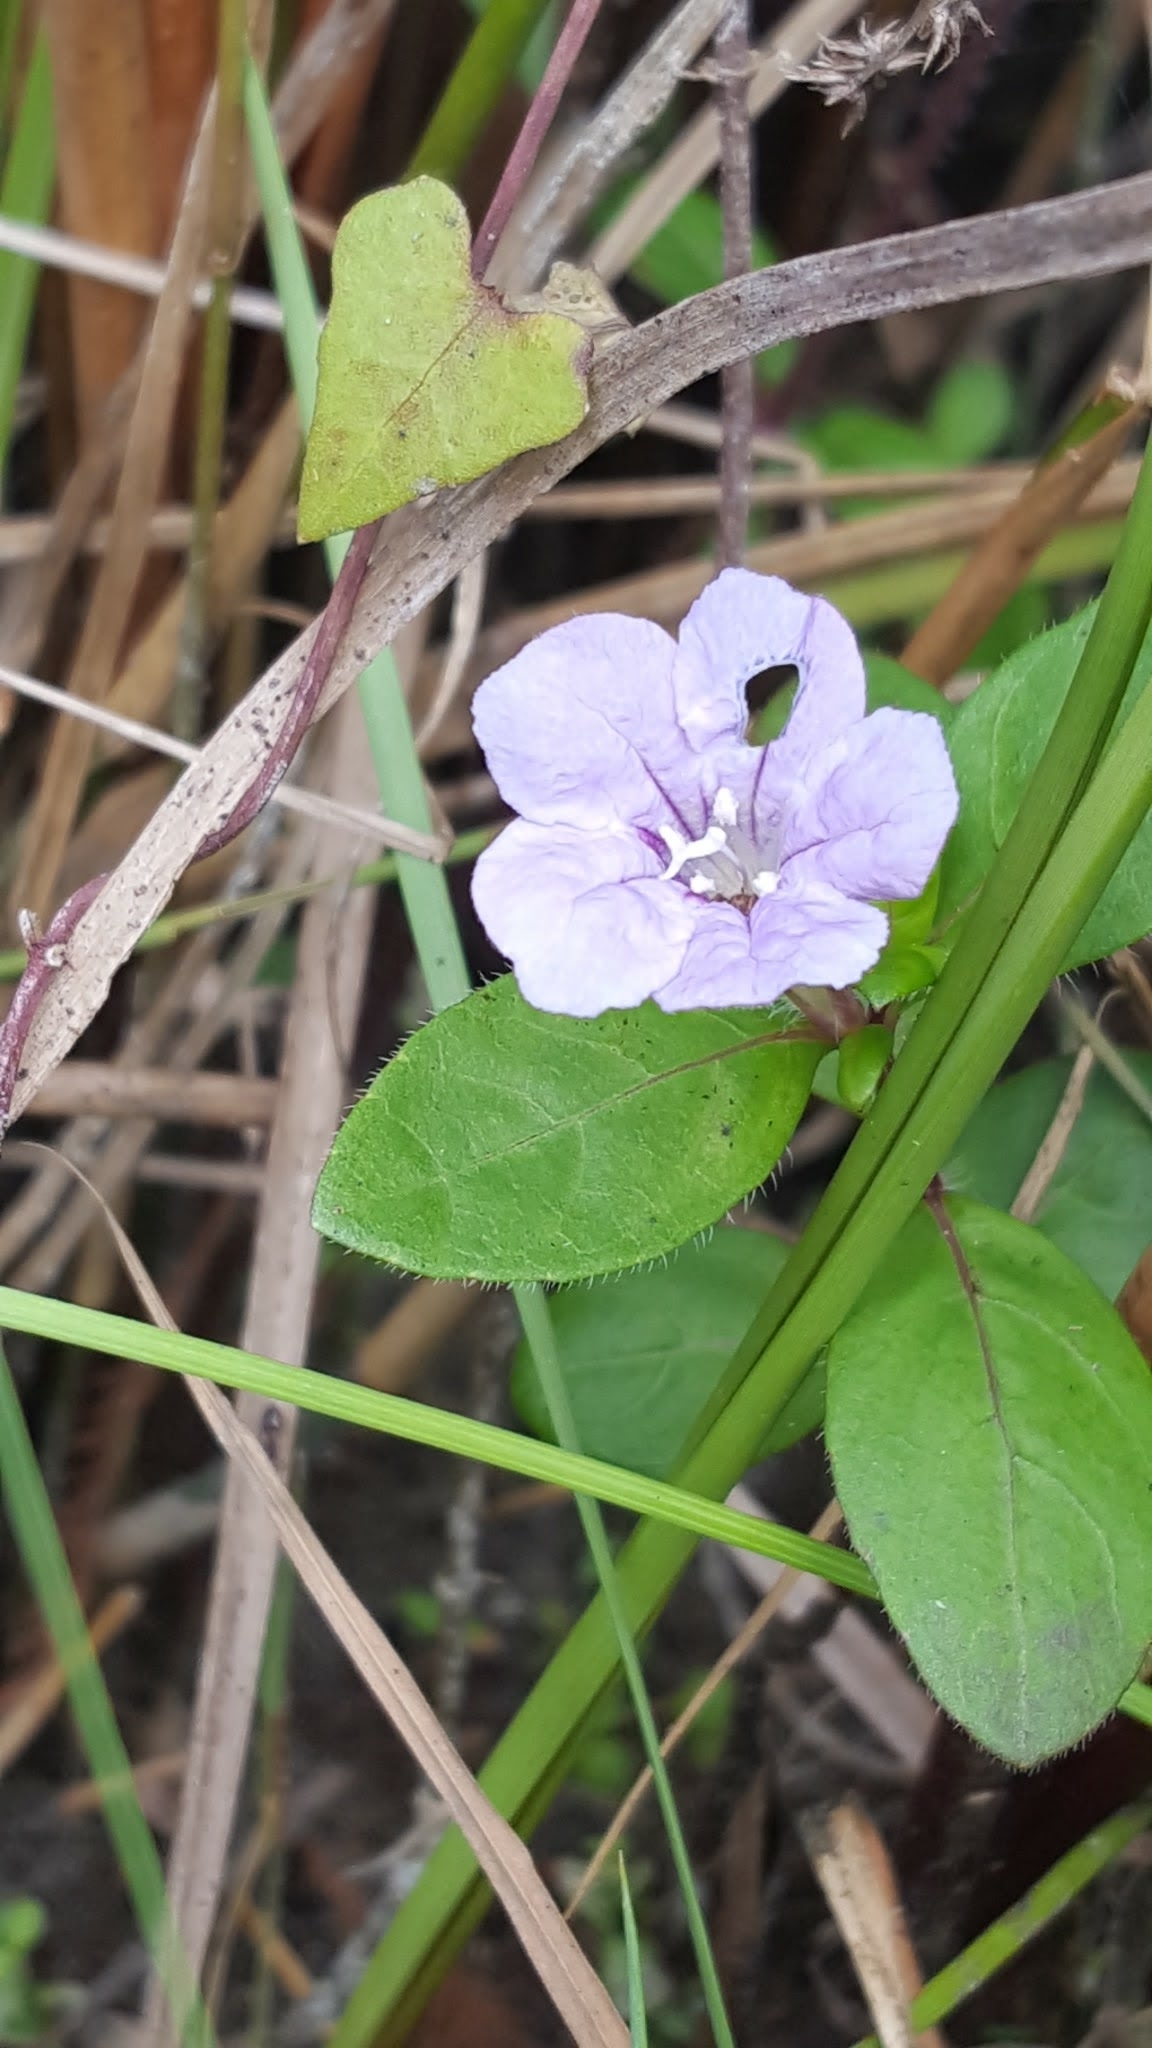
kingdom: Plantae
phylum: Tracheophyta
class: Magnoliopsida
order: Lamiales
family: Acanthaceae
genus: Ruellia
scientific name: Ruellia caroliniensis
